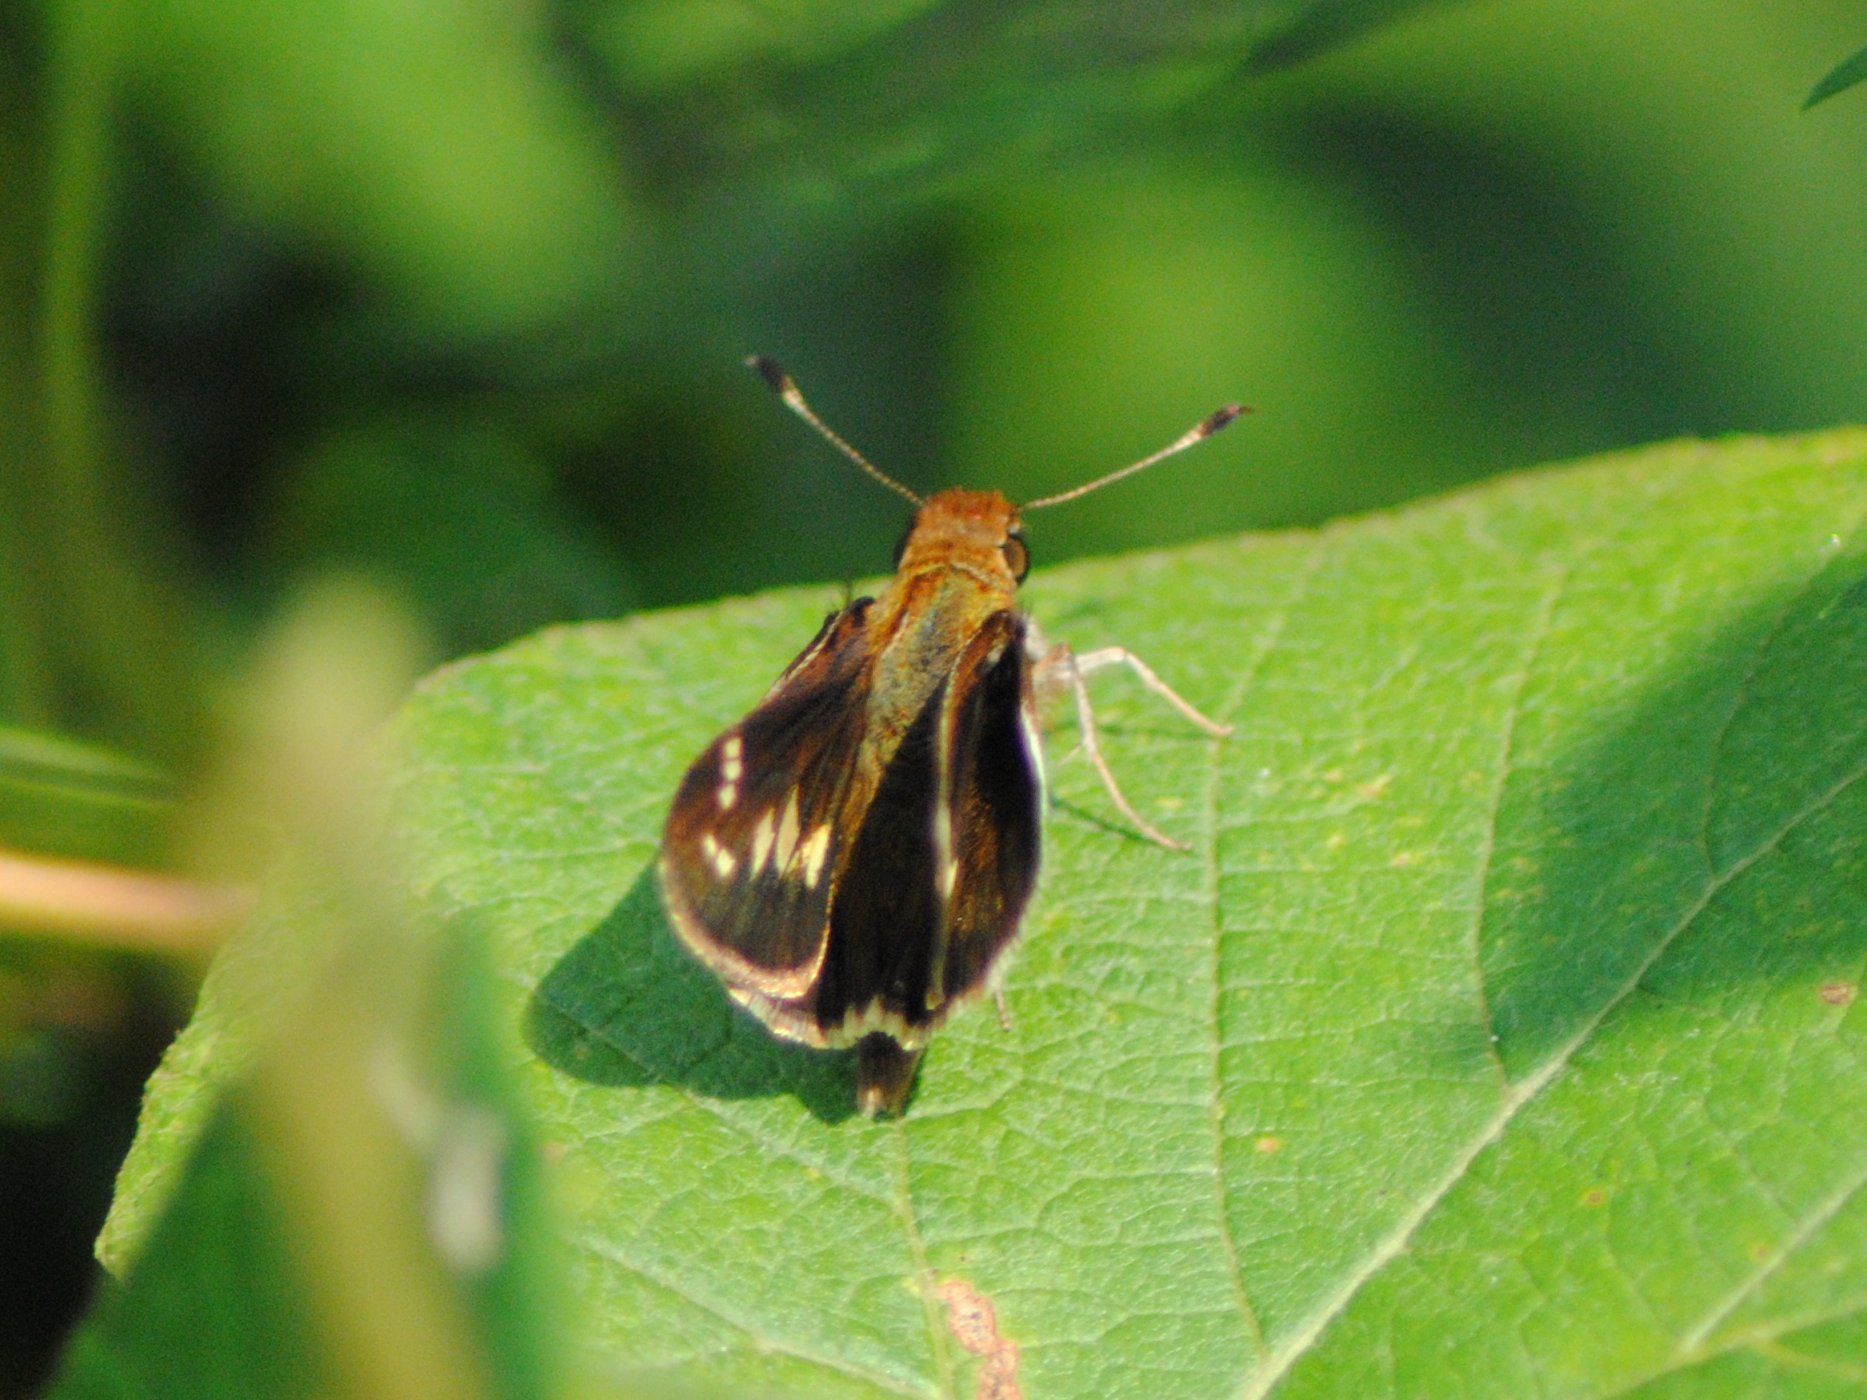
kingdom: Animalia
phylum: Arthropoda
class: Insecta
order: Lepidoptera
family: Hesperiidae
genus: Lon
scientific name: Lon zabulon
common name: Zabulon skipper
